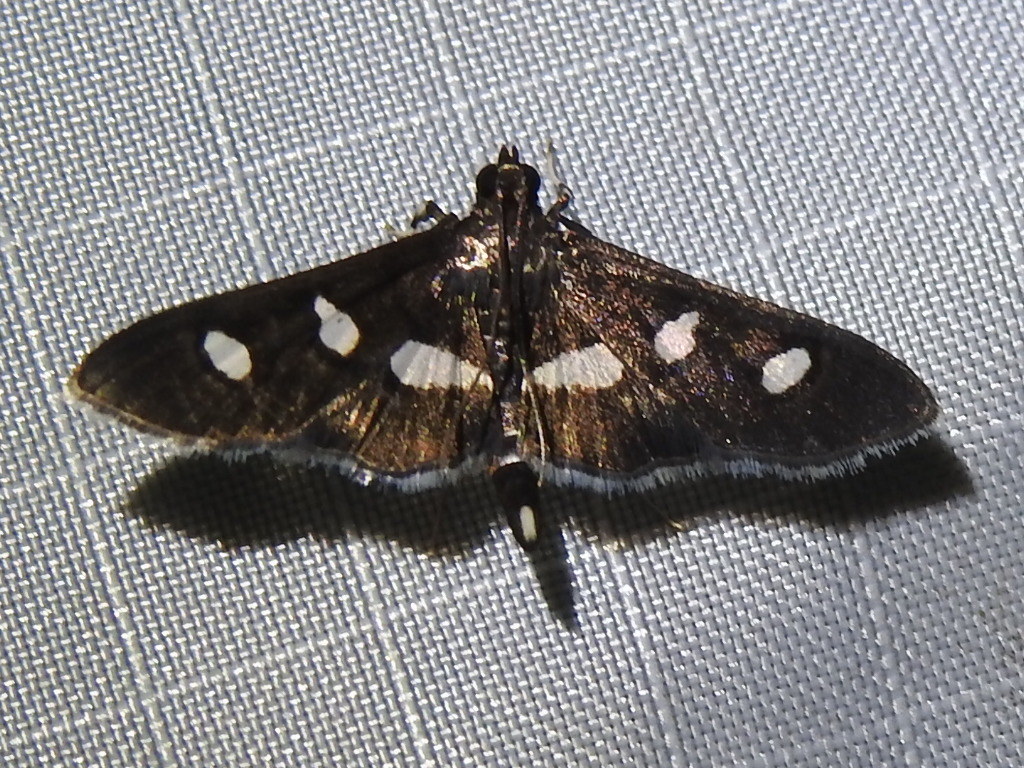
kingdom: Animalia
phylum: Arthropoda
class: Insecta
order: Lepidoptera
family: Crambidae
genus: Desmia
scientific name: Desmia funeralis
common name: Grape leaf folder moth
